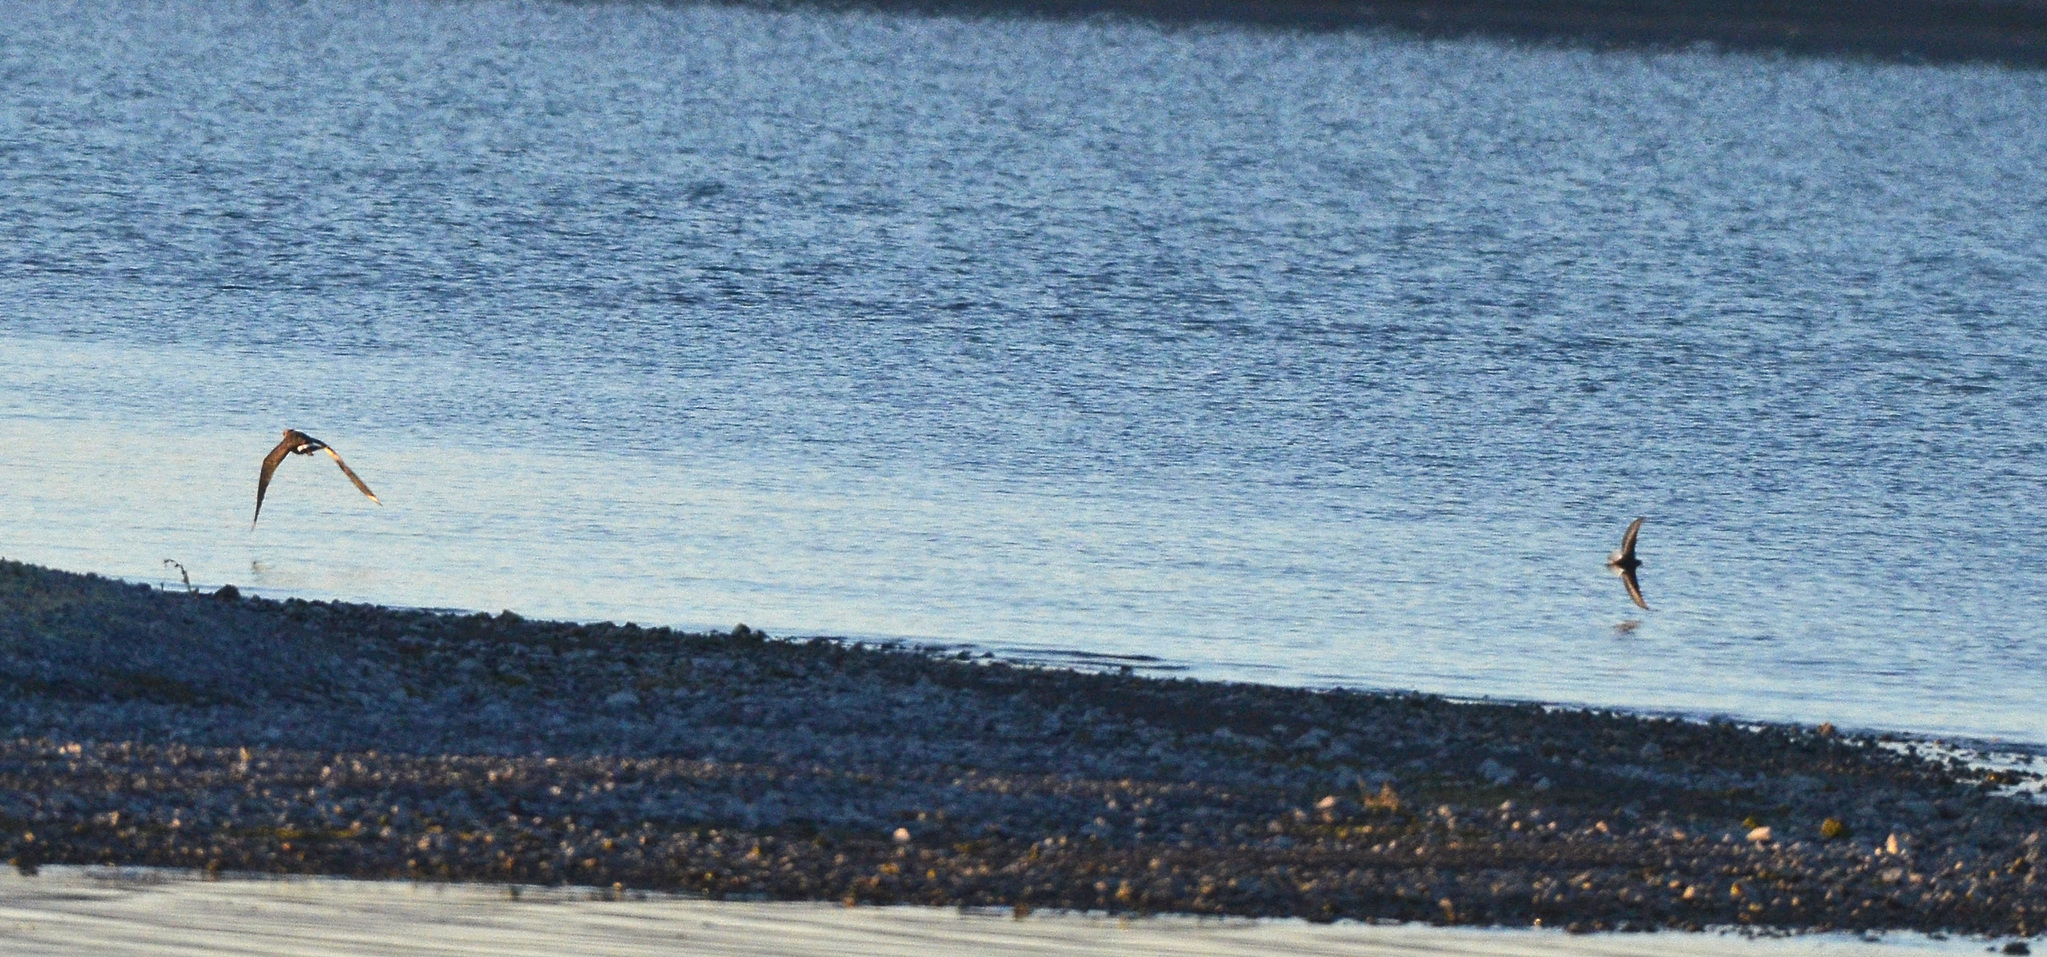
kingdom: Animalia
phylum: Chordata
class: Aves
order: Charadriiformes
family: Charadriidae
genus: Vanellus
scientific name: Vanellus vanellus
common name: Northern lapwing
